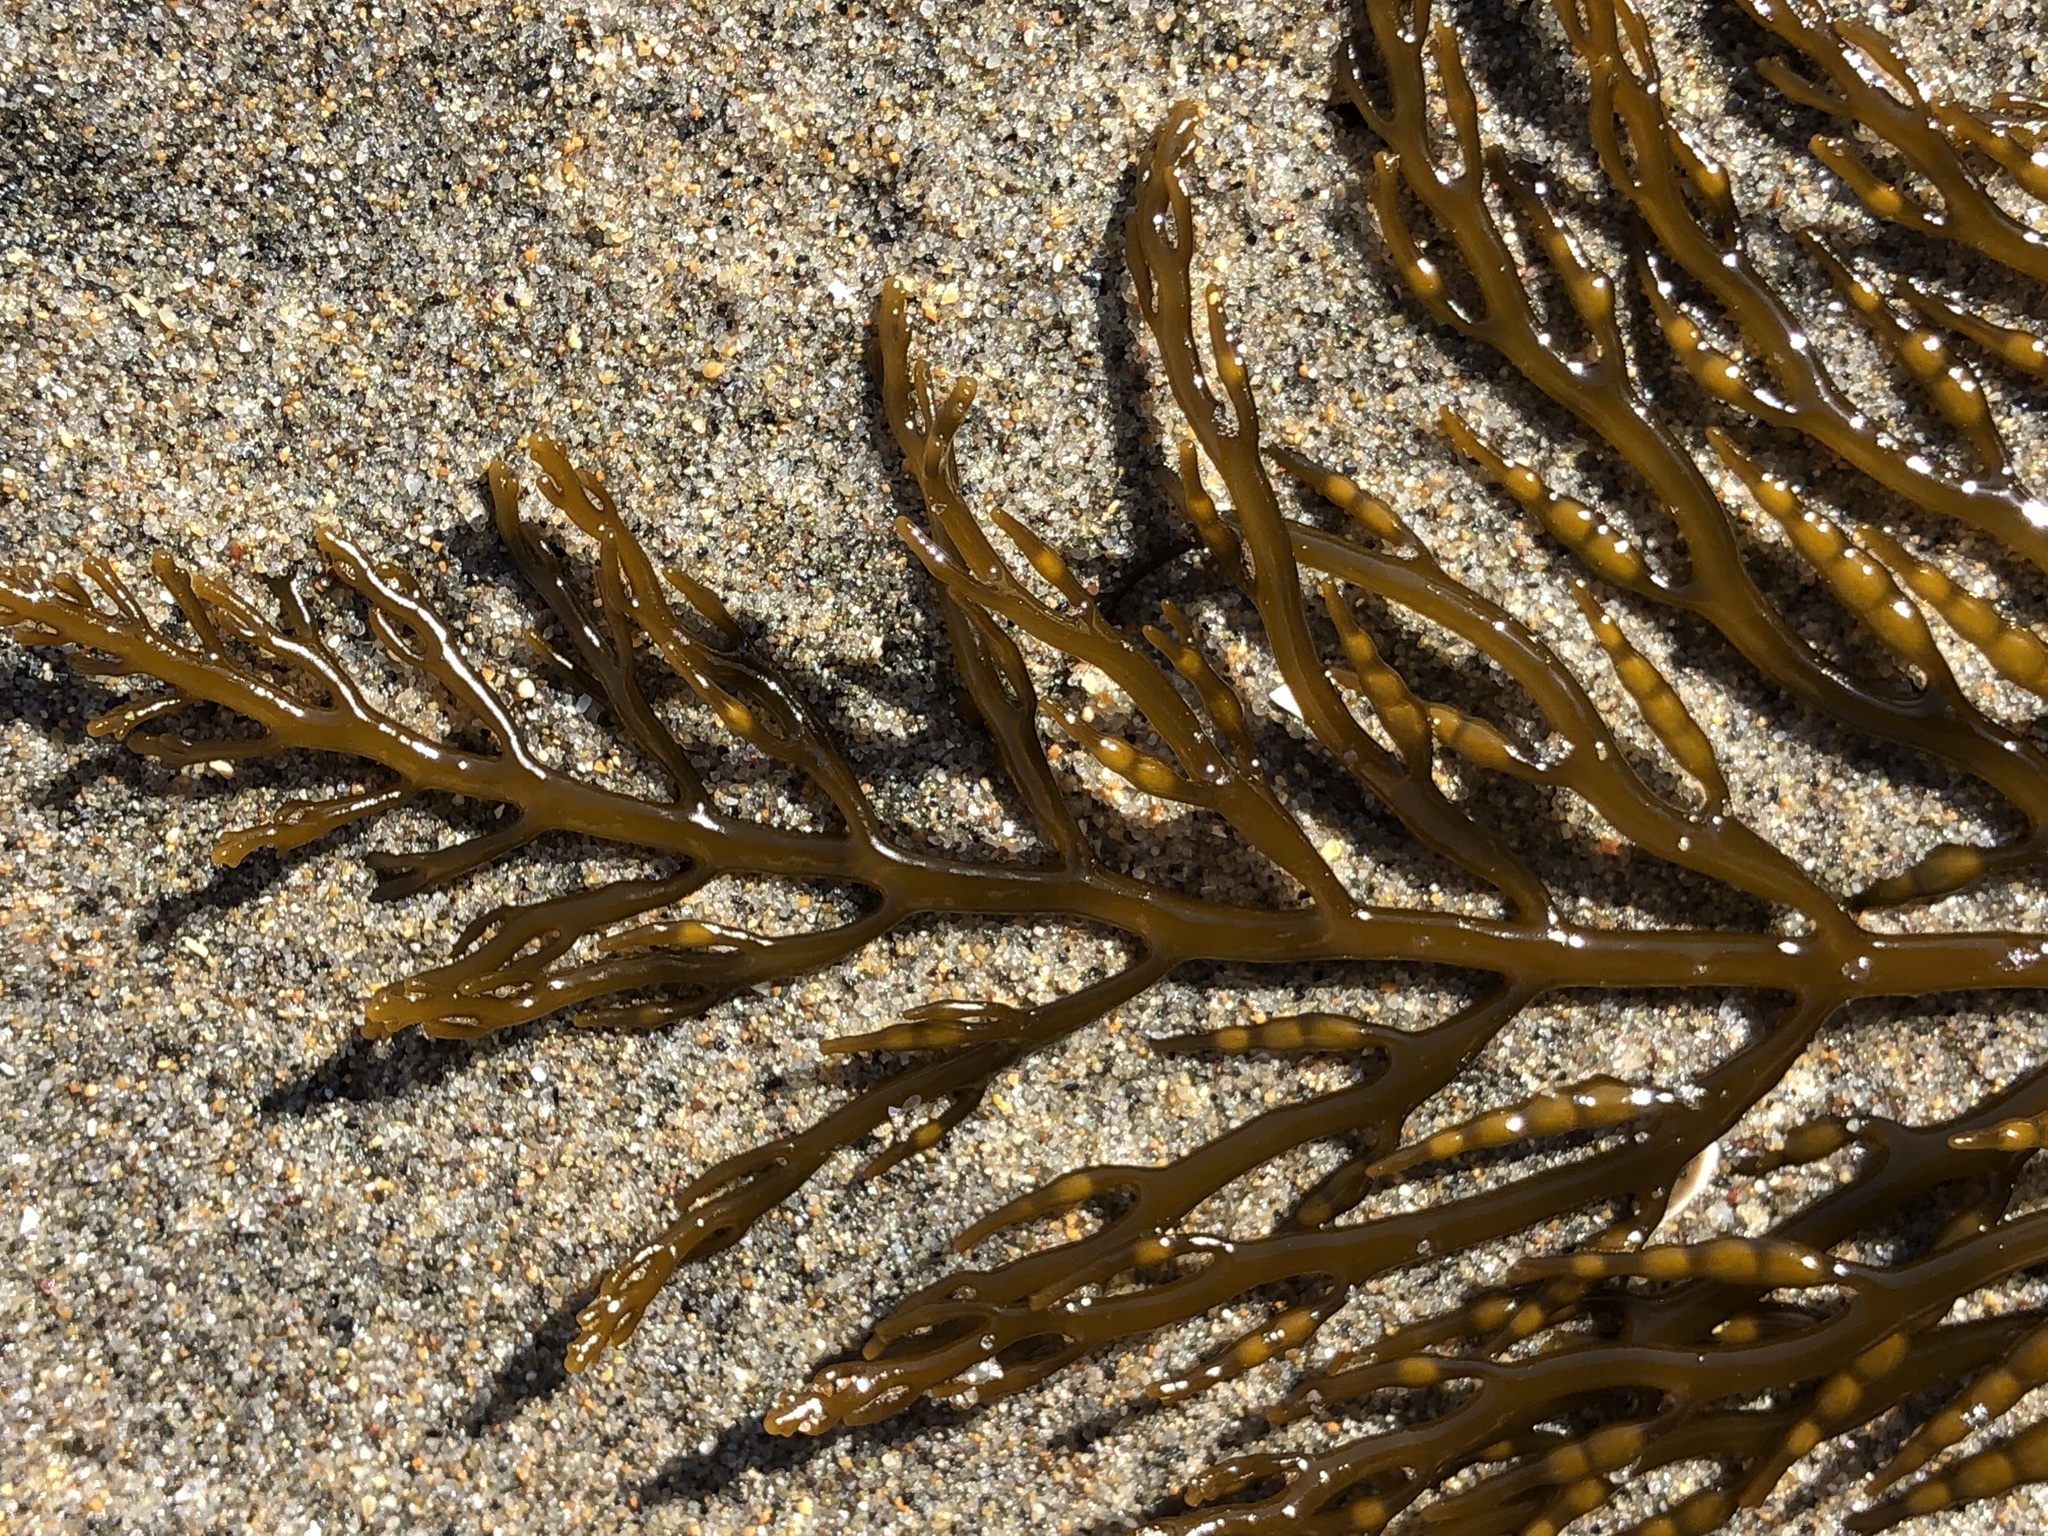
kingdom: Chromista
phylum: Ochrophyta
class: Phaeophyceae
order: Fucales
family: Sargassaceae
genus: Stephanocystis
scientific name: Stephanocystis
